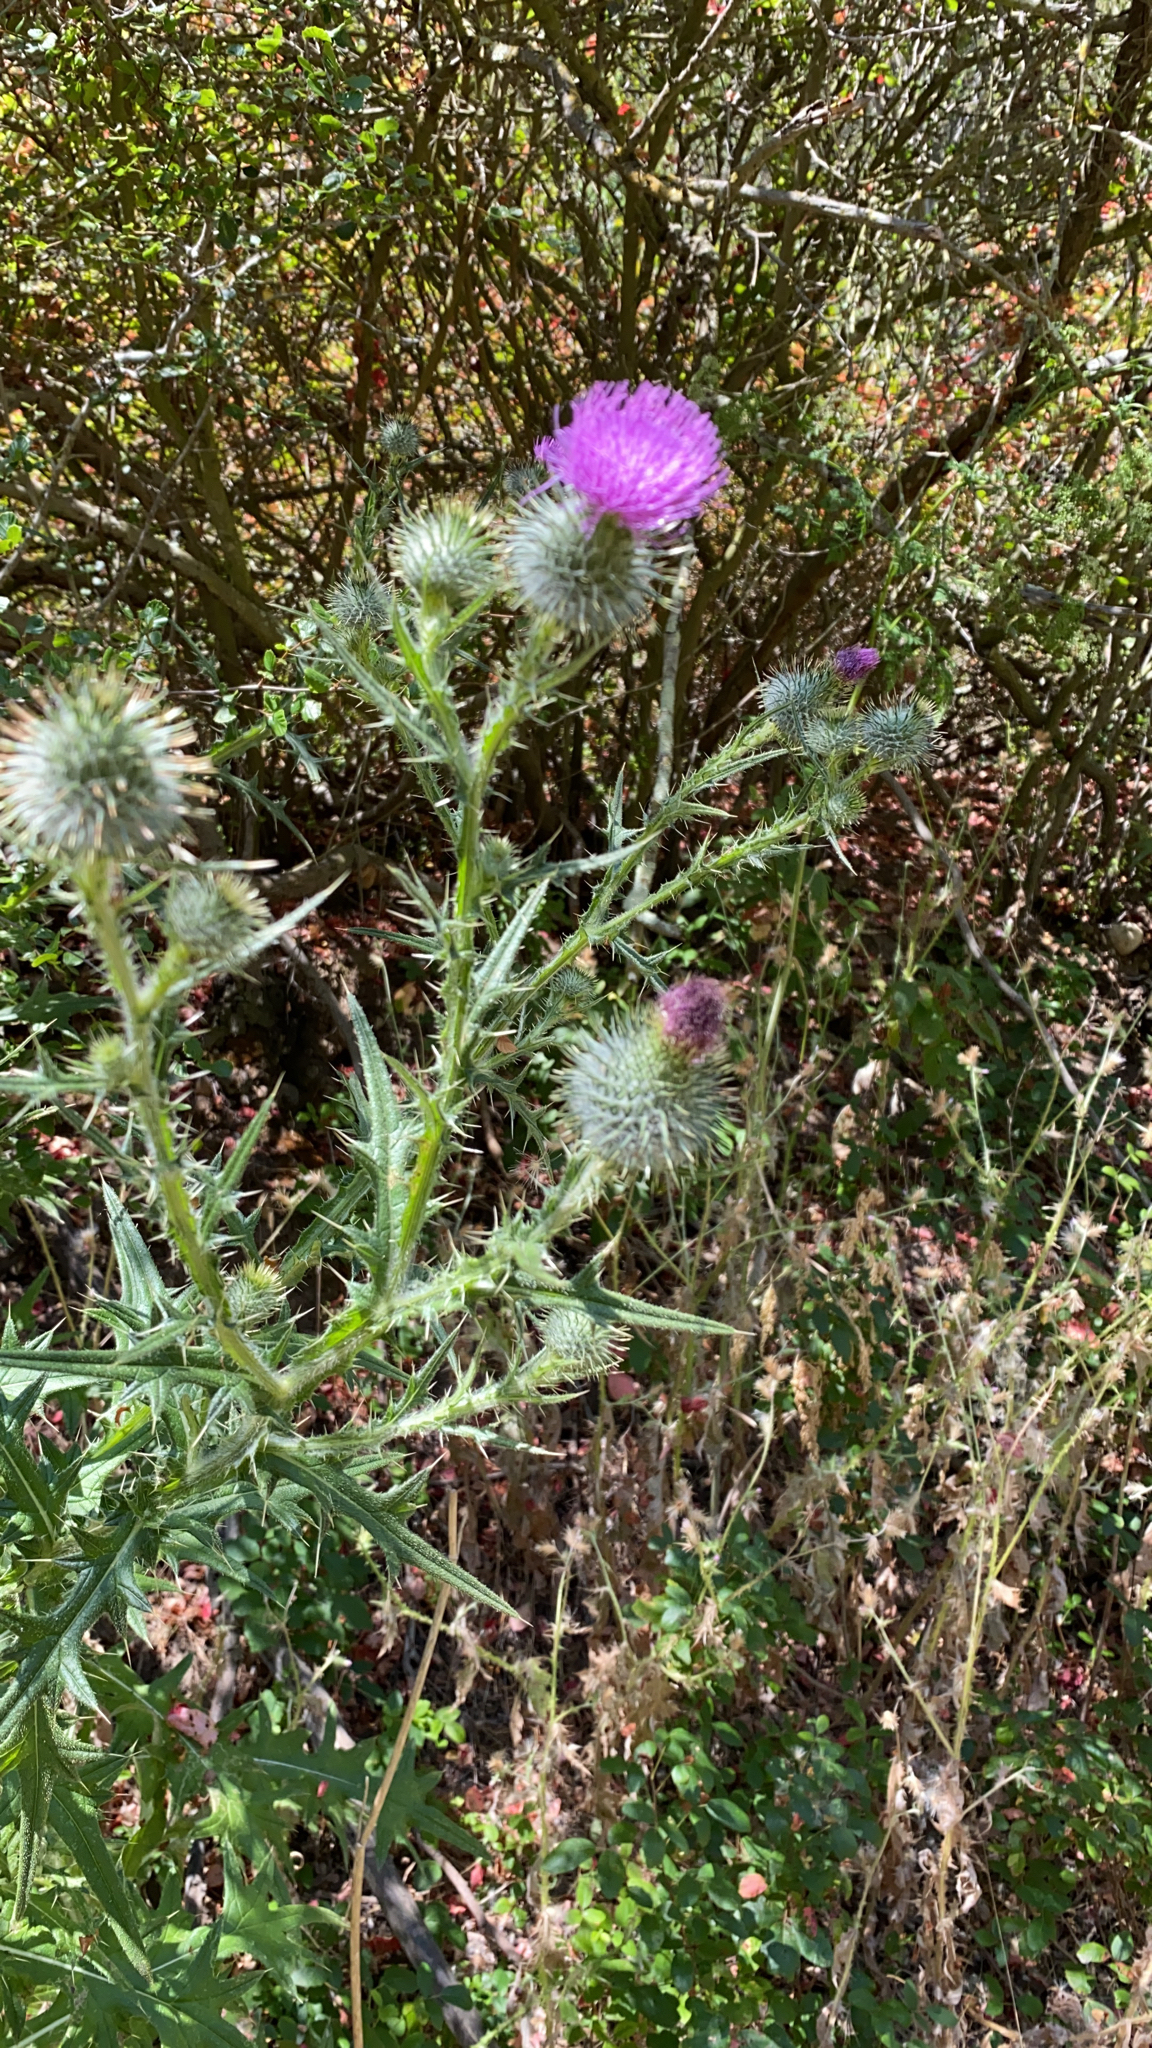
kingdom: Plantae
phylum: Tracheophyta
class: Magnoliopsida
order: Asterales
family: Asteraceae
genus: Cirsium
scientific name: Cirsium vulgare
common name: Bull thistle
